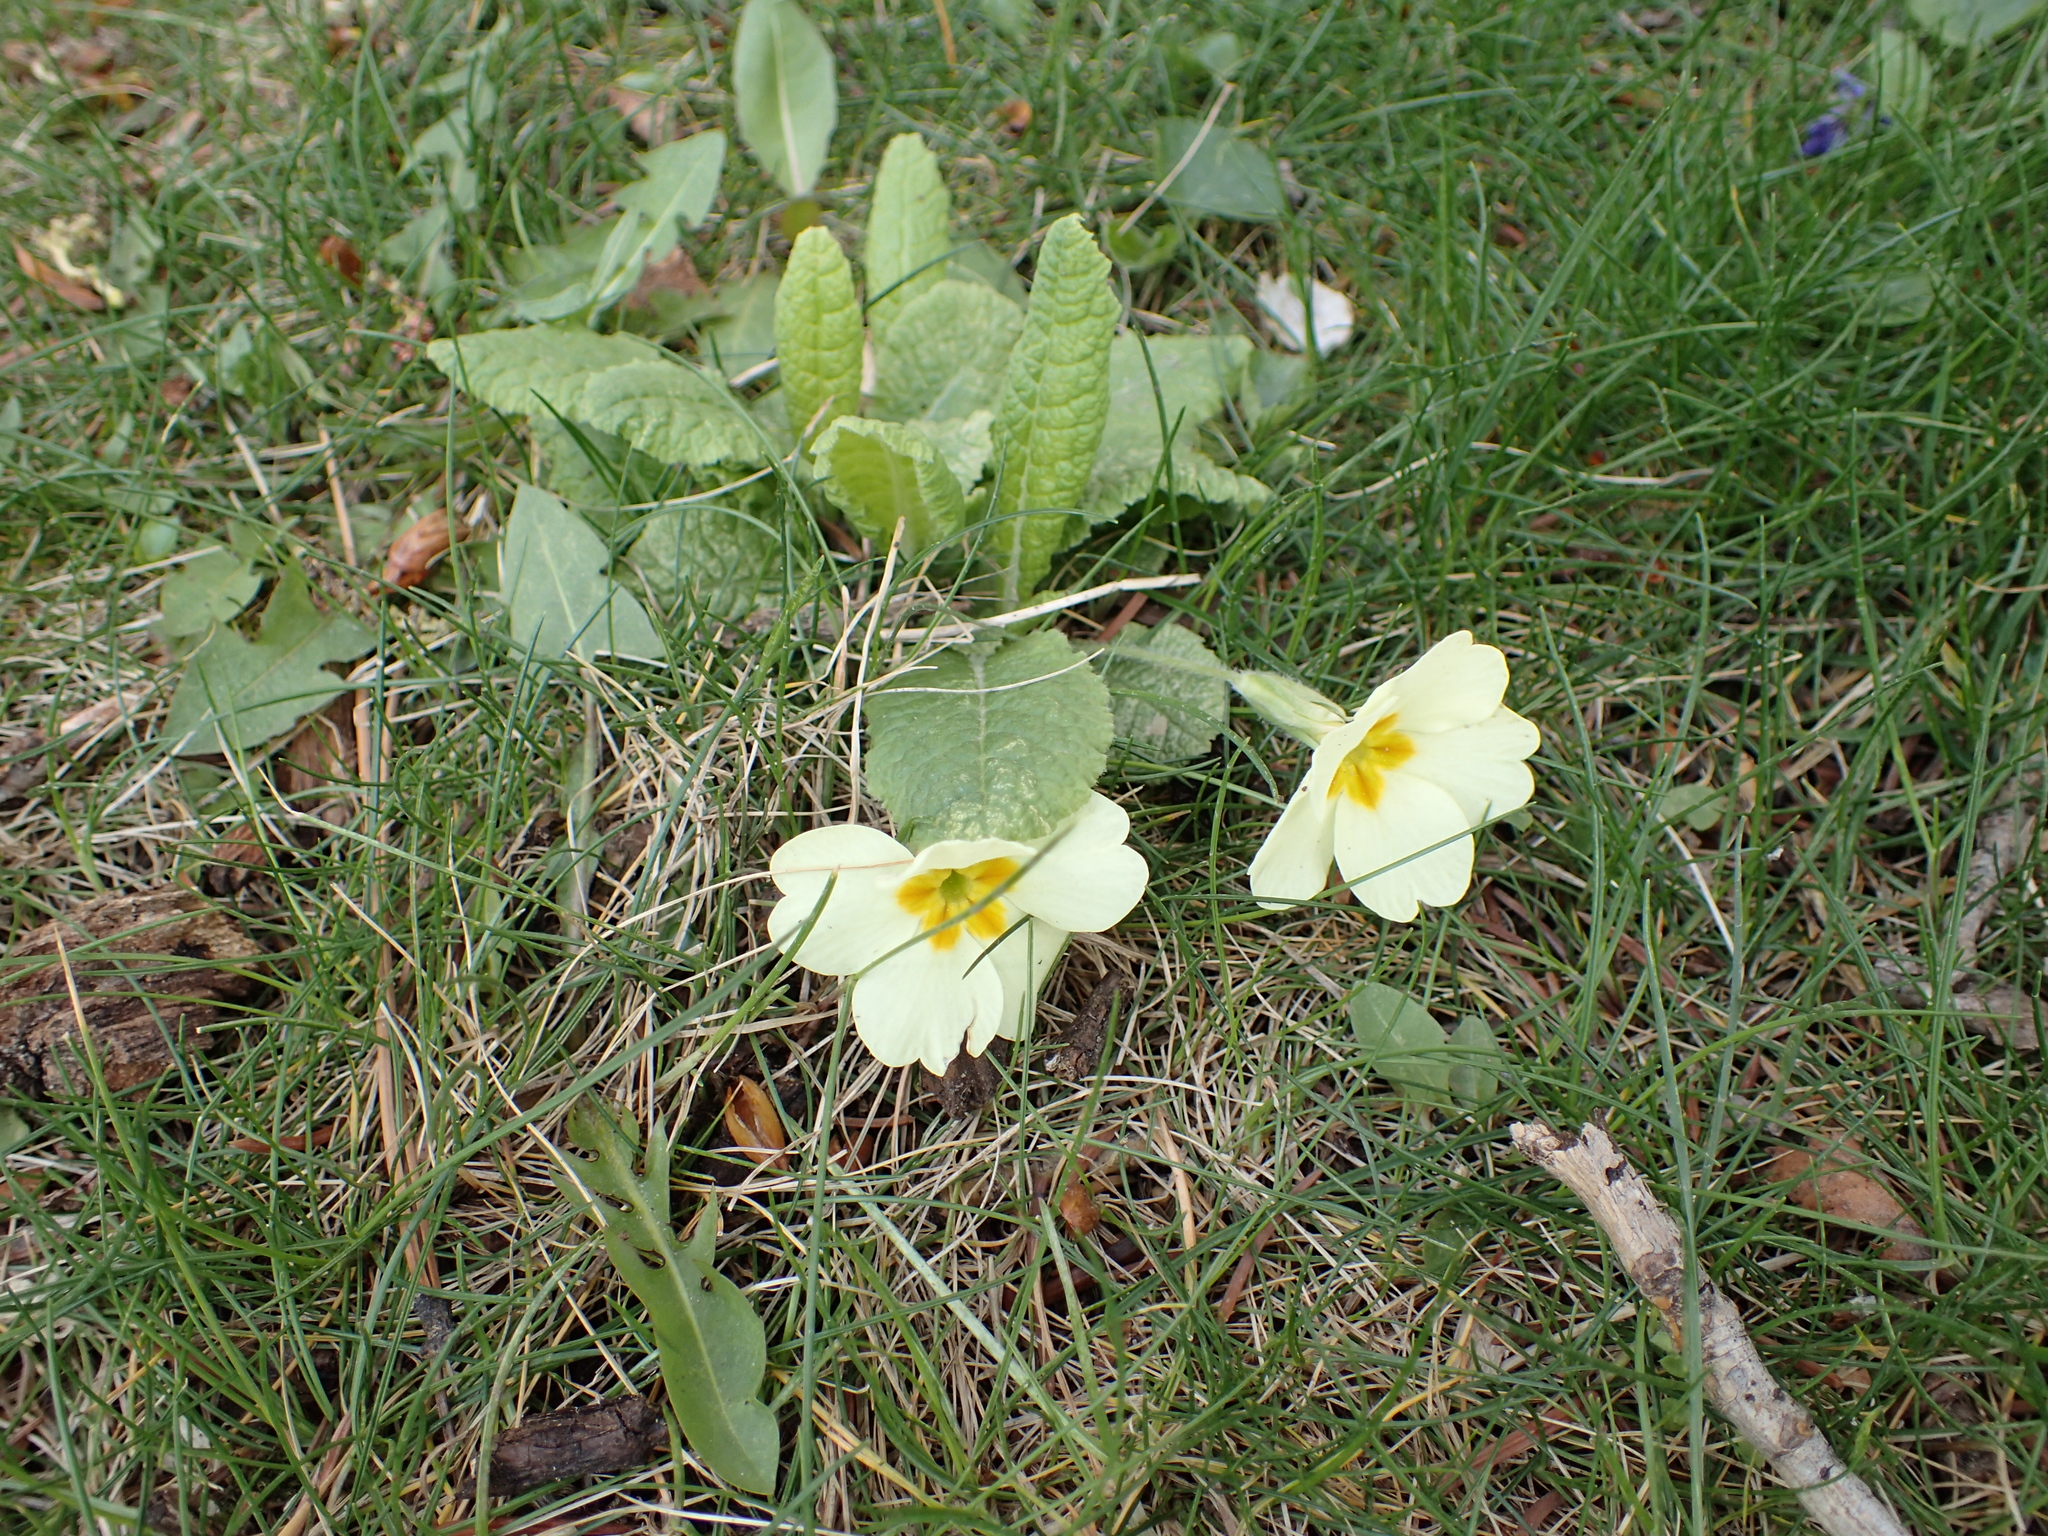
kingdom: Plantae
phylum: Tracheophyta
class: Magnoliopsida
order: Ericales
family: Primulaceae
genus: Primula
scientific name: Primula vulgaris
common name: Primrose
